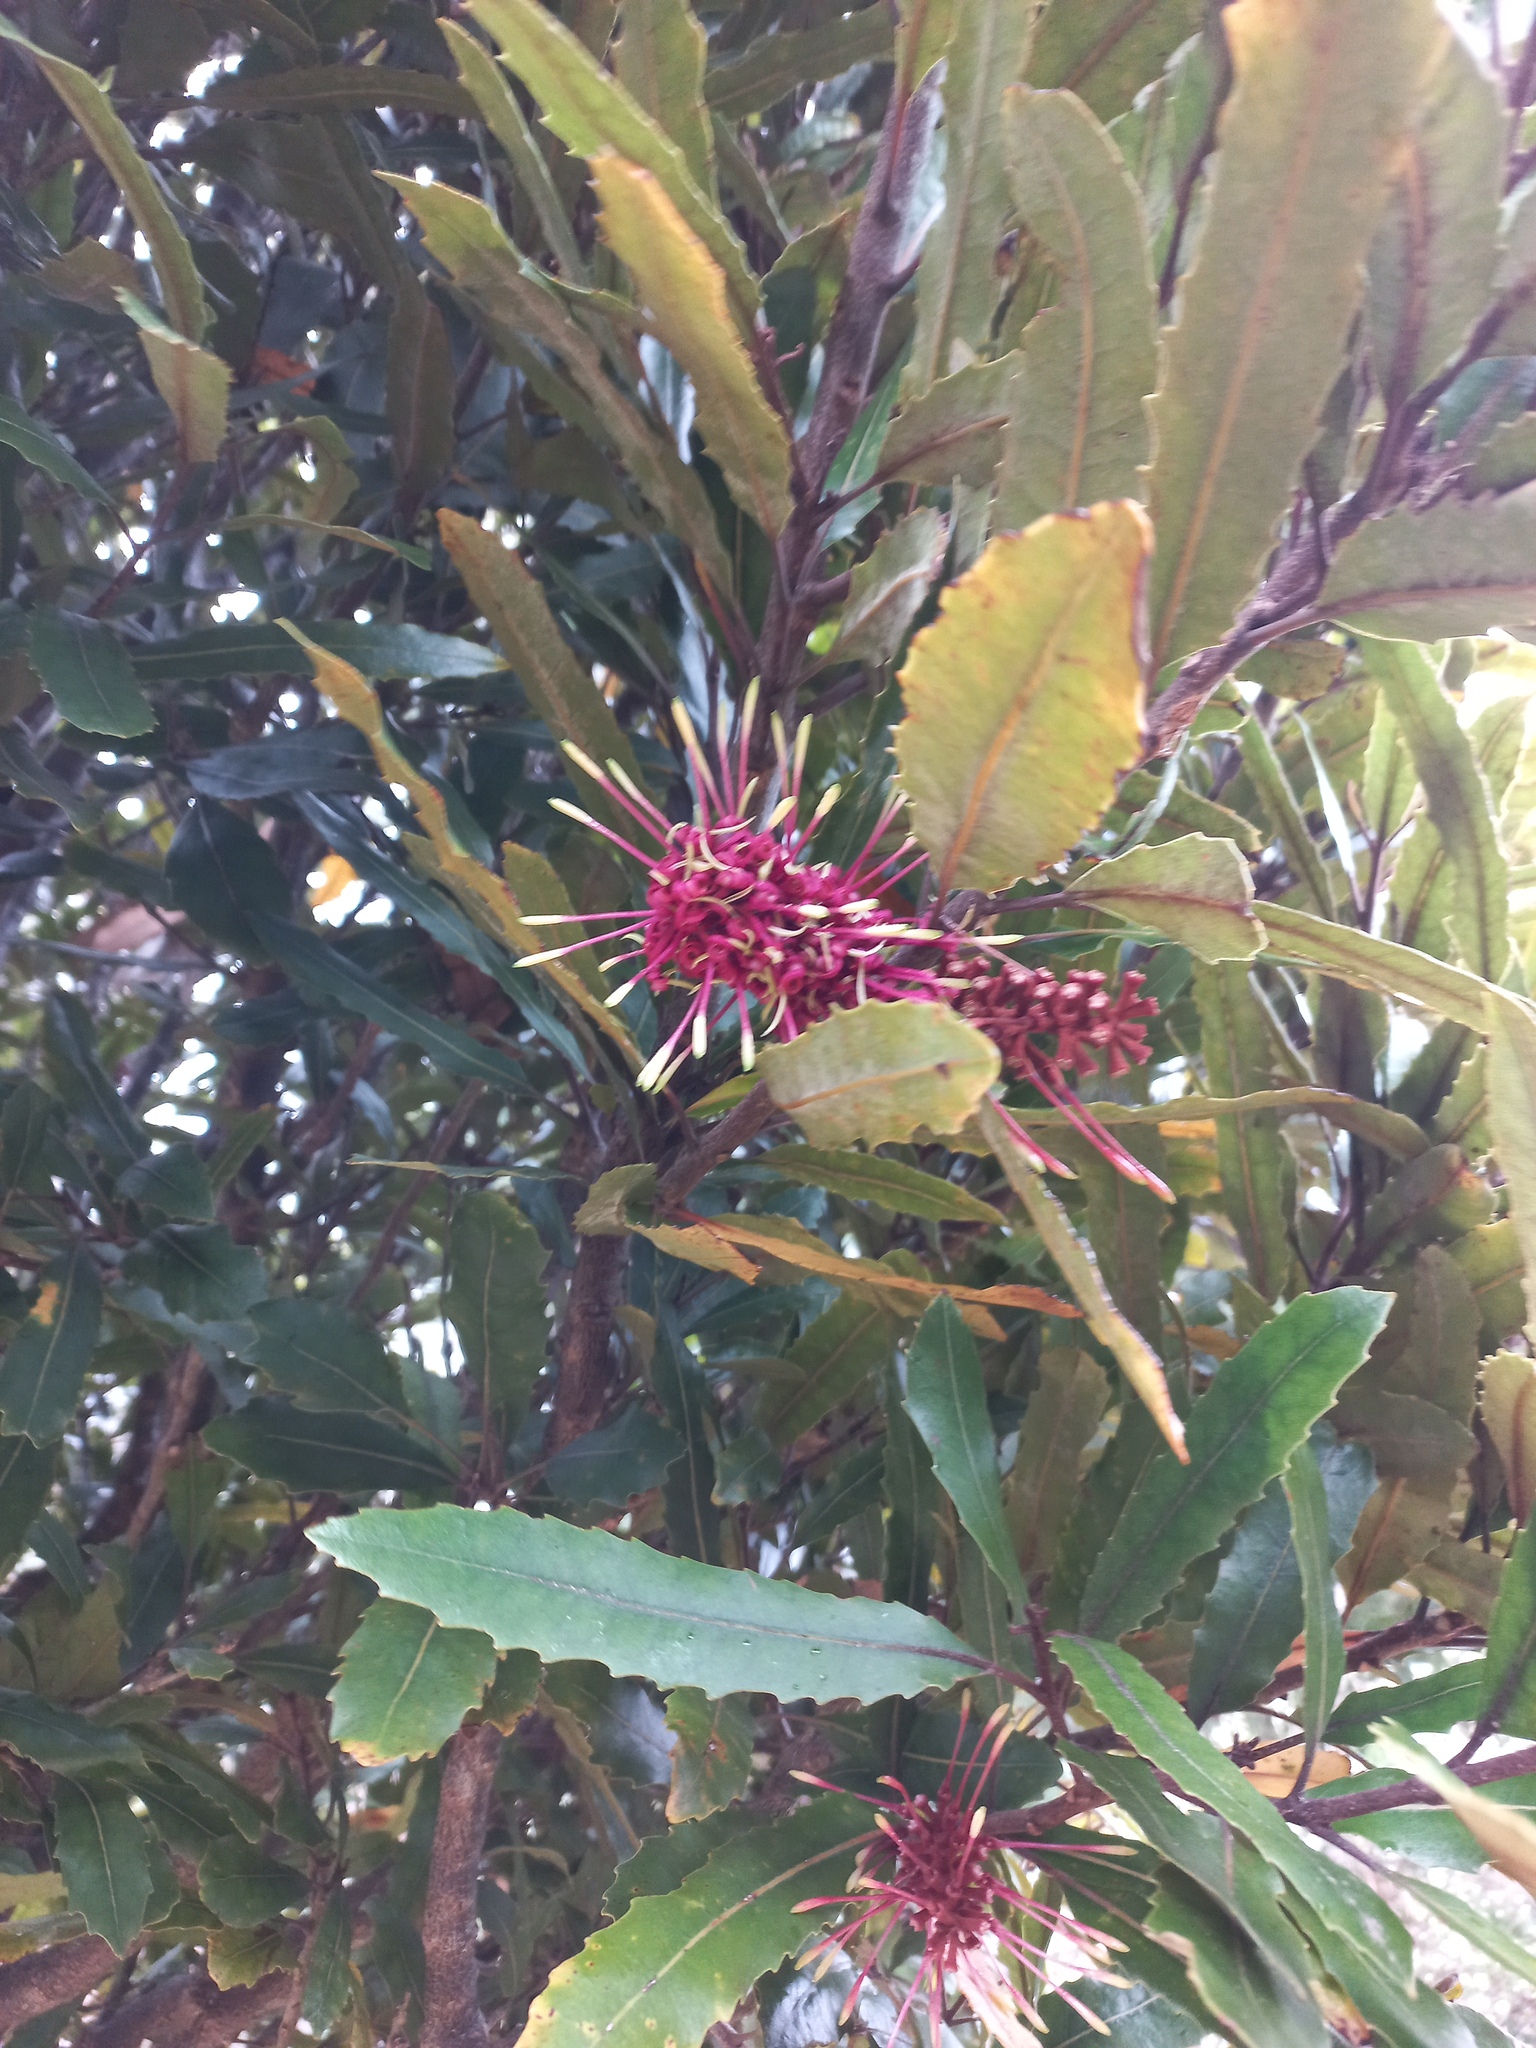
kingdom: Plantae
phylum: Tracheophyta
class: Magnoliopsida
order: Proteales
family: Proteaceae
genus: Knightia
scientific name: Knightia excelsa
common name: New zealand-honeysuckle
